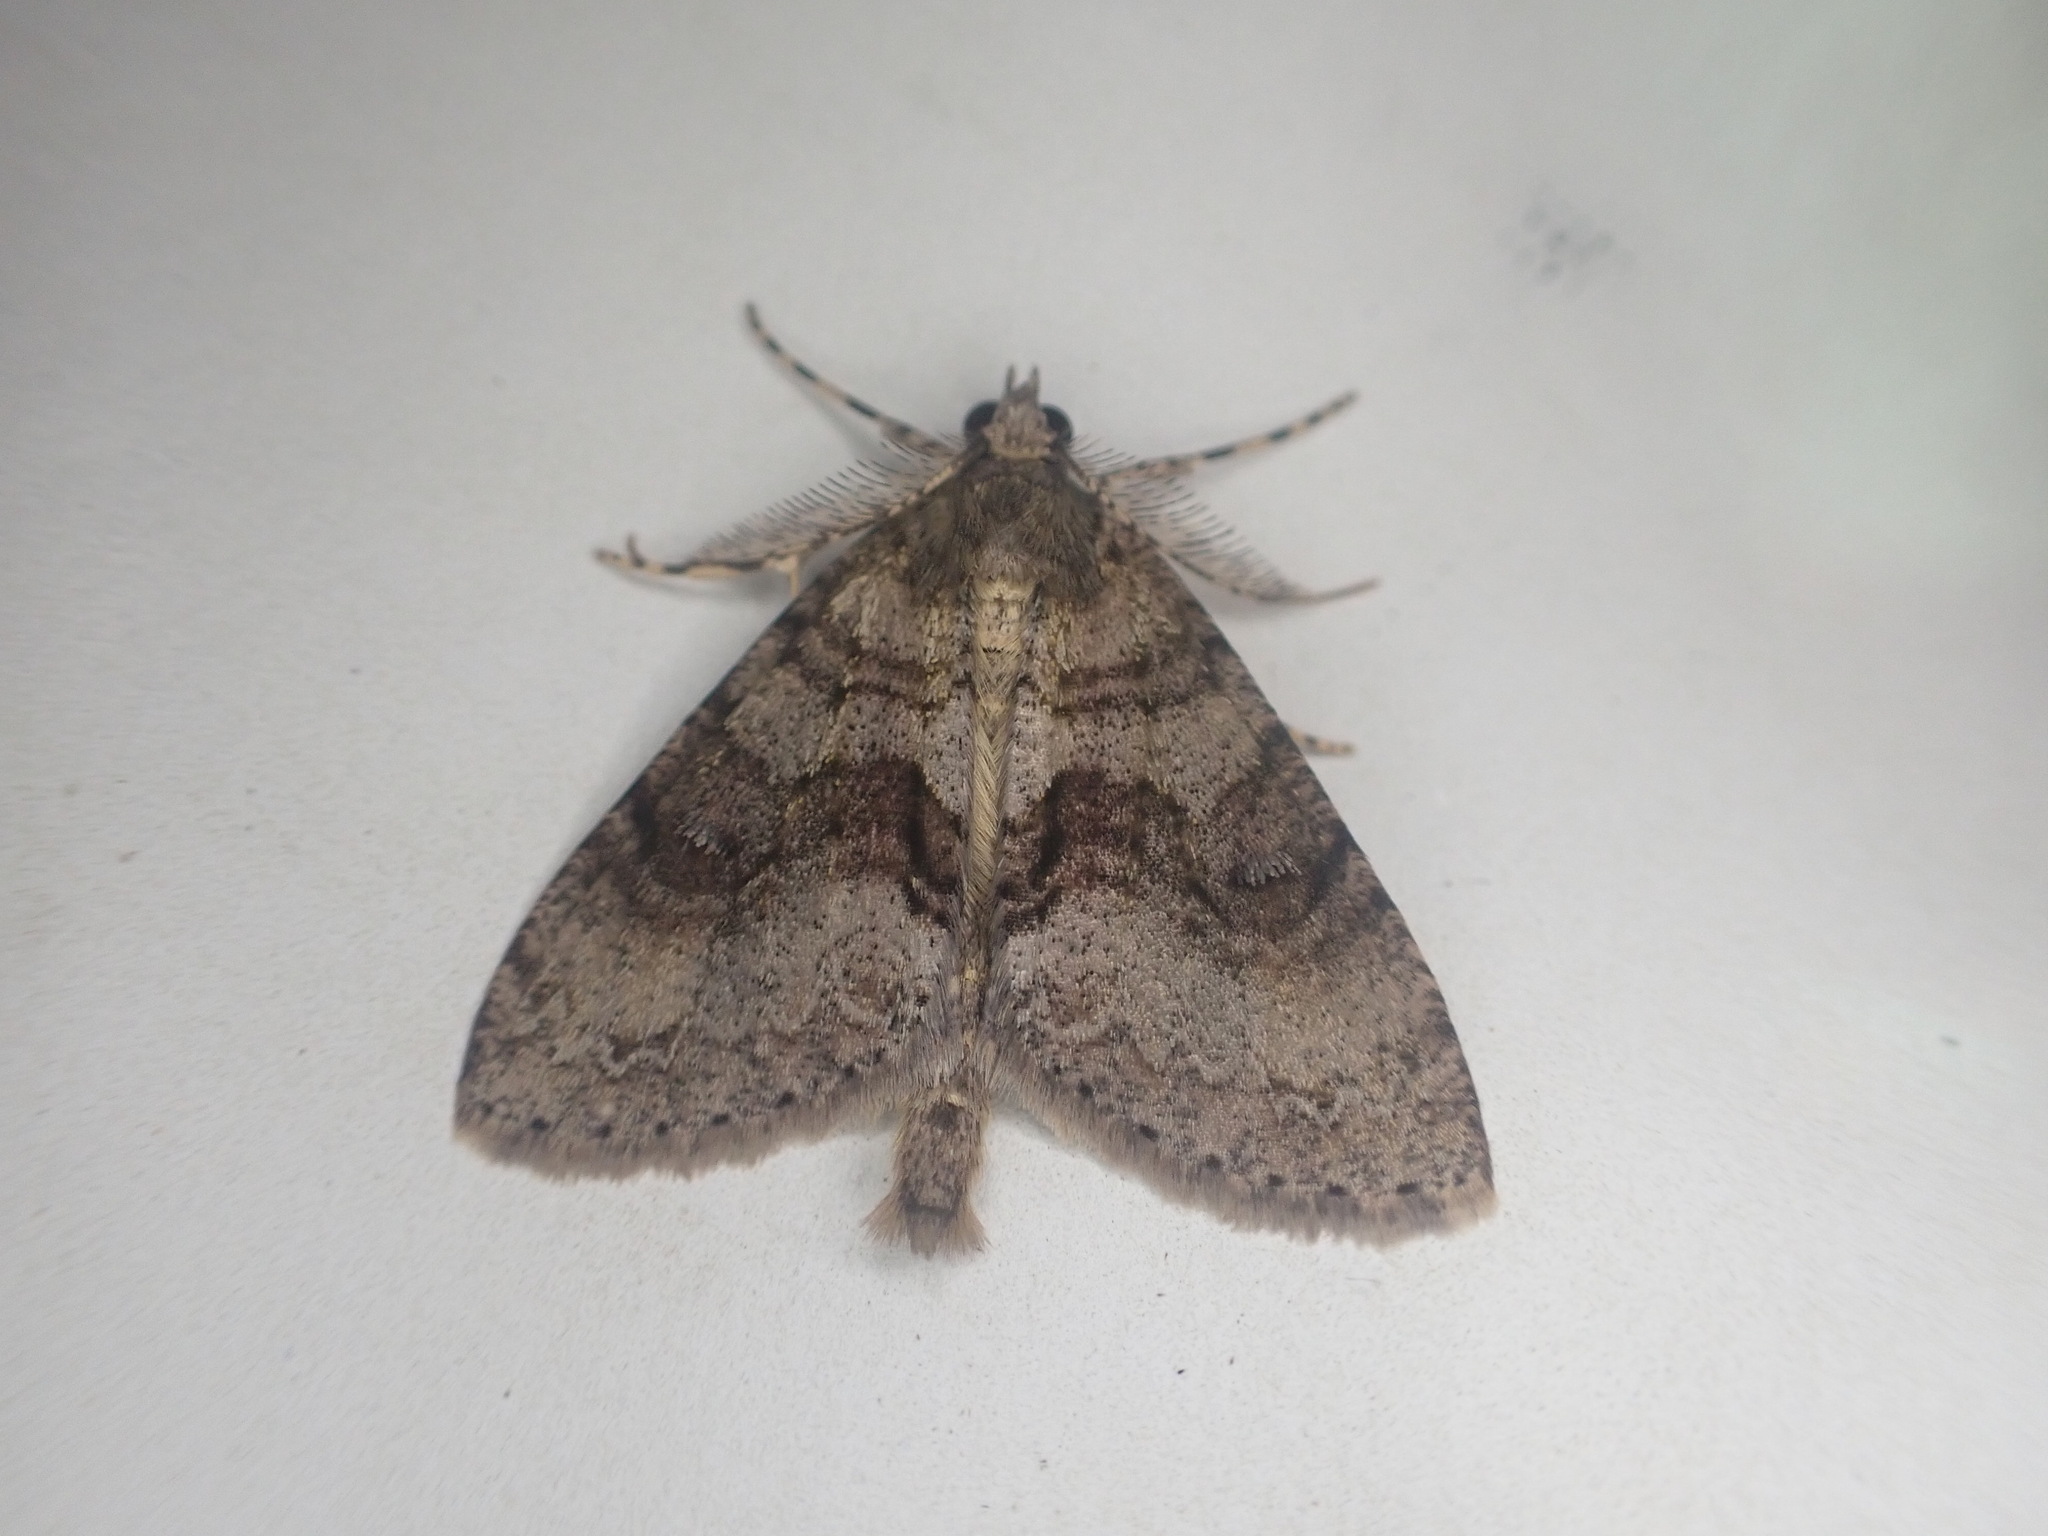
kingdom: Animalia
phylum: Arthropoda
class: Insecta
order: Lepidoptera
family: Geometridae
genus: Pseudocoremia
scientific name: Pseudocoremia suavis
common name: Common forest looper
